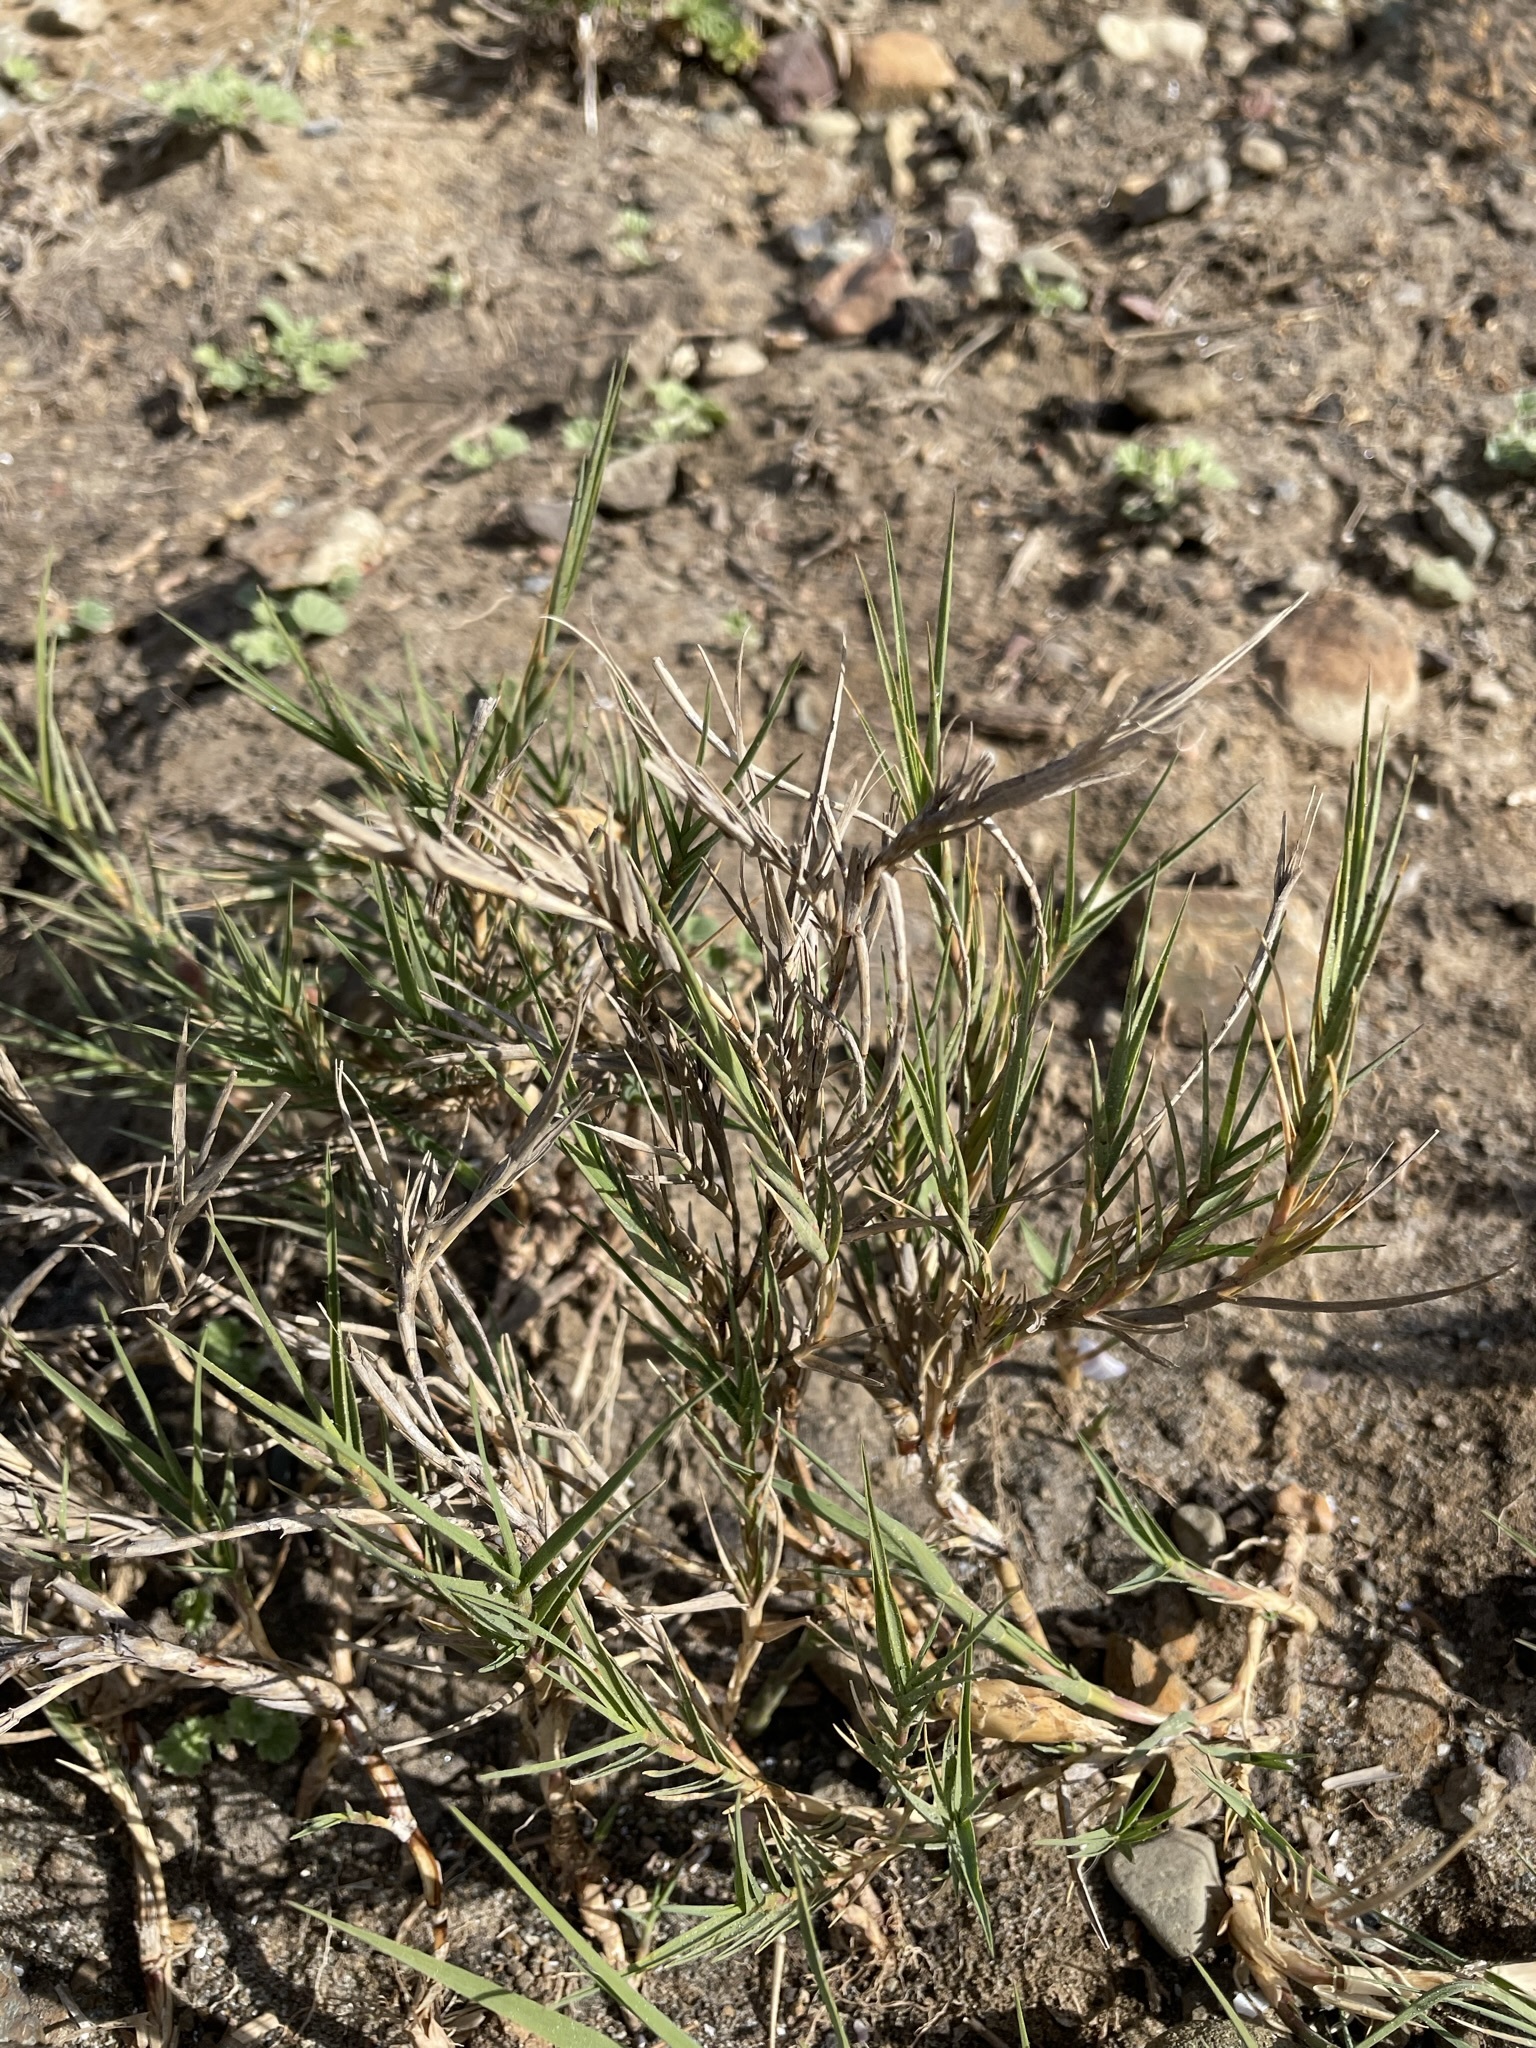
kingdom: Plantae
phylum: Tracheophyta
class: Liliopsida
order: Poales
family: Poaceae
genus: Distichlis
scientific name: Distichlis spicata
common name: Saltgrass
